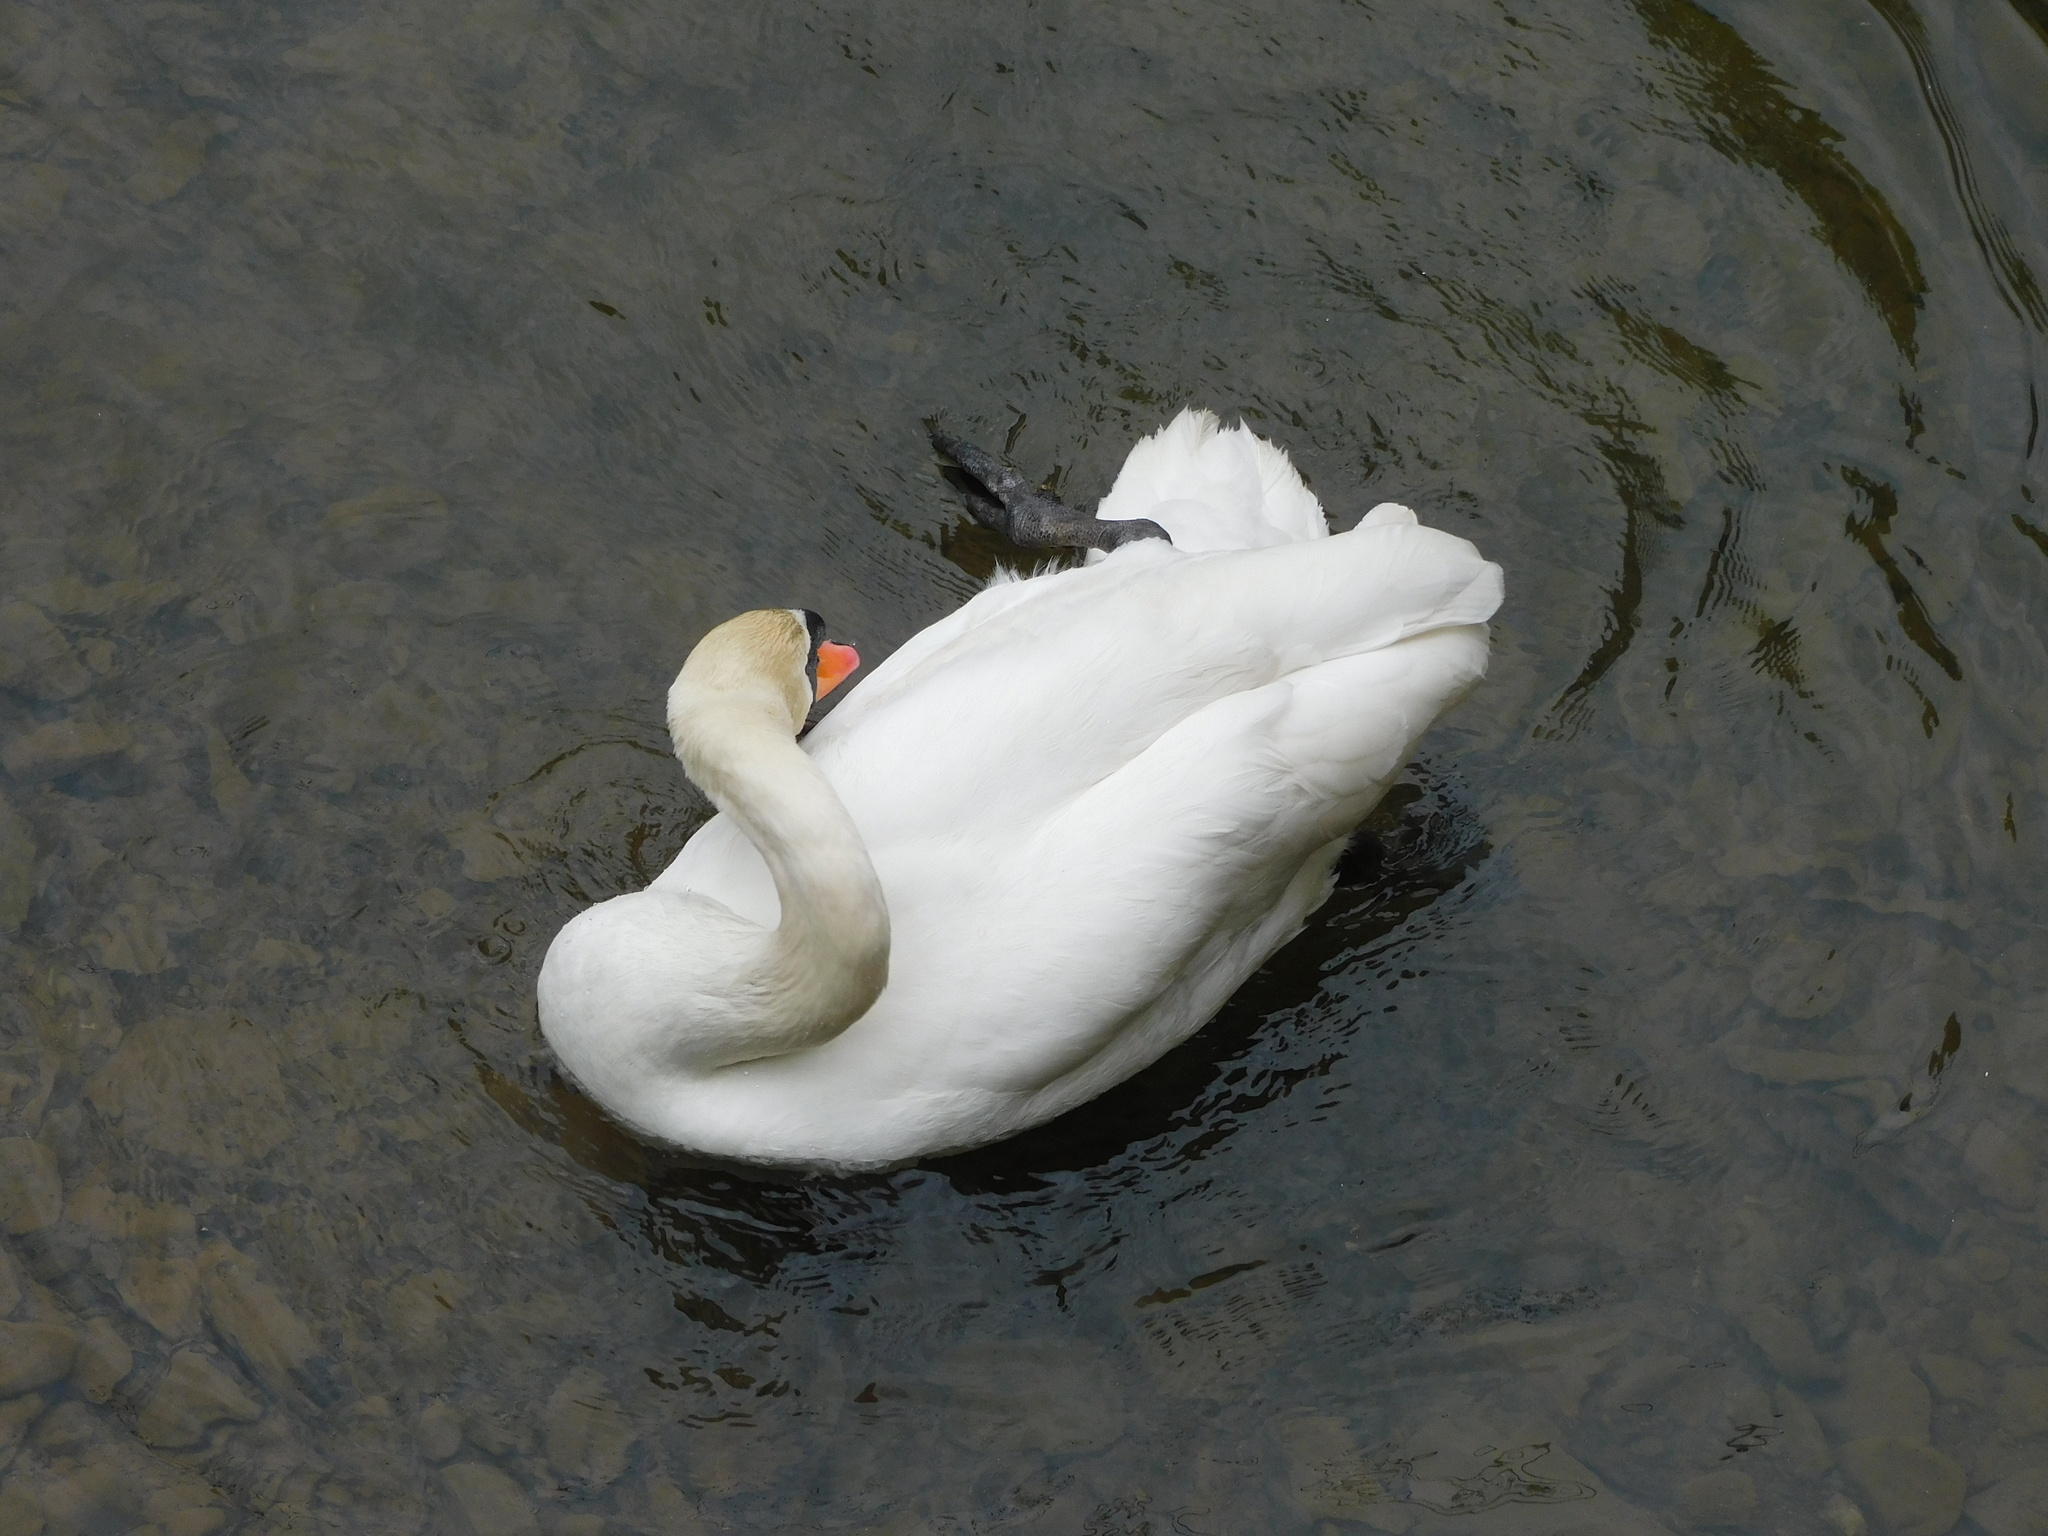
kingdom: Animalia
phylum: Chordata
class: Aves
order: Anseriformes
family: Anatidae
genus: Cygnus
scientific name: Cygnus olor
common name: Mute swan
